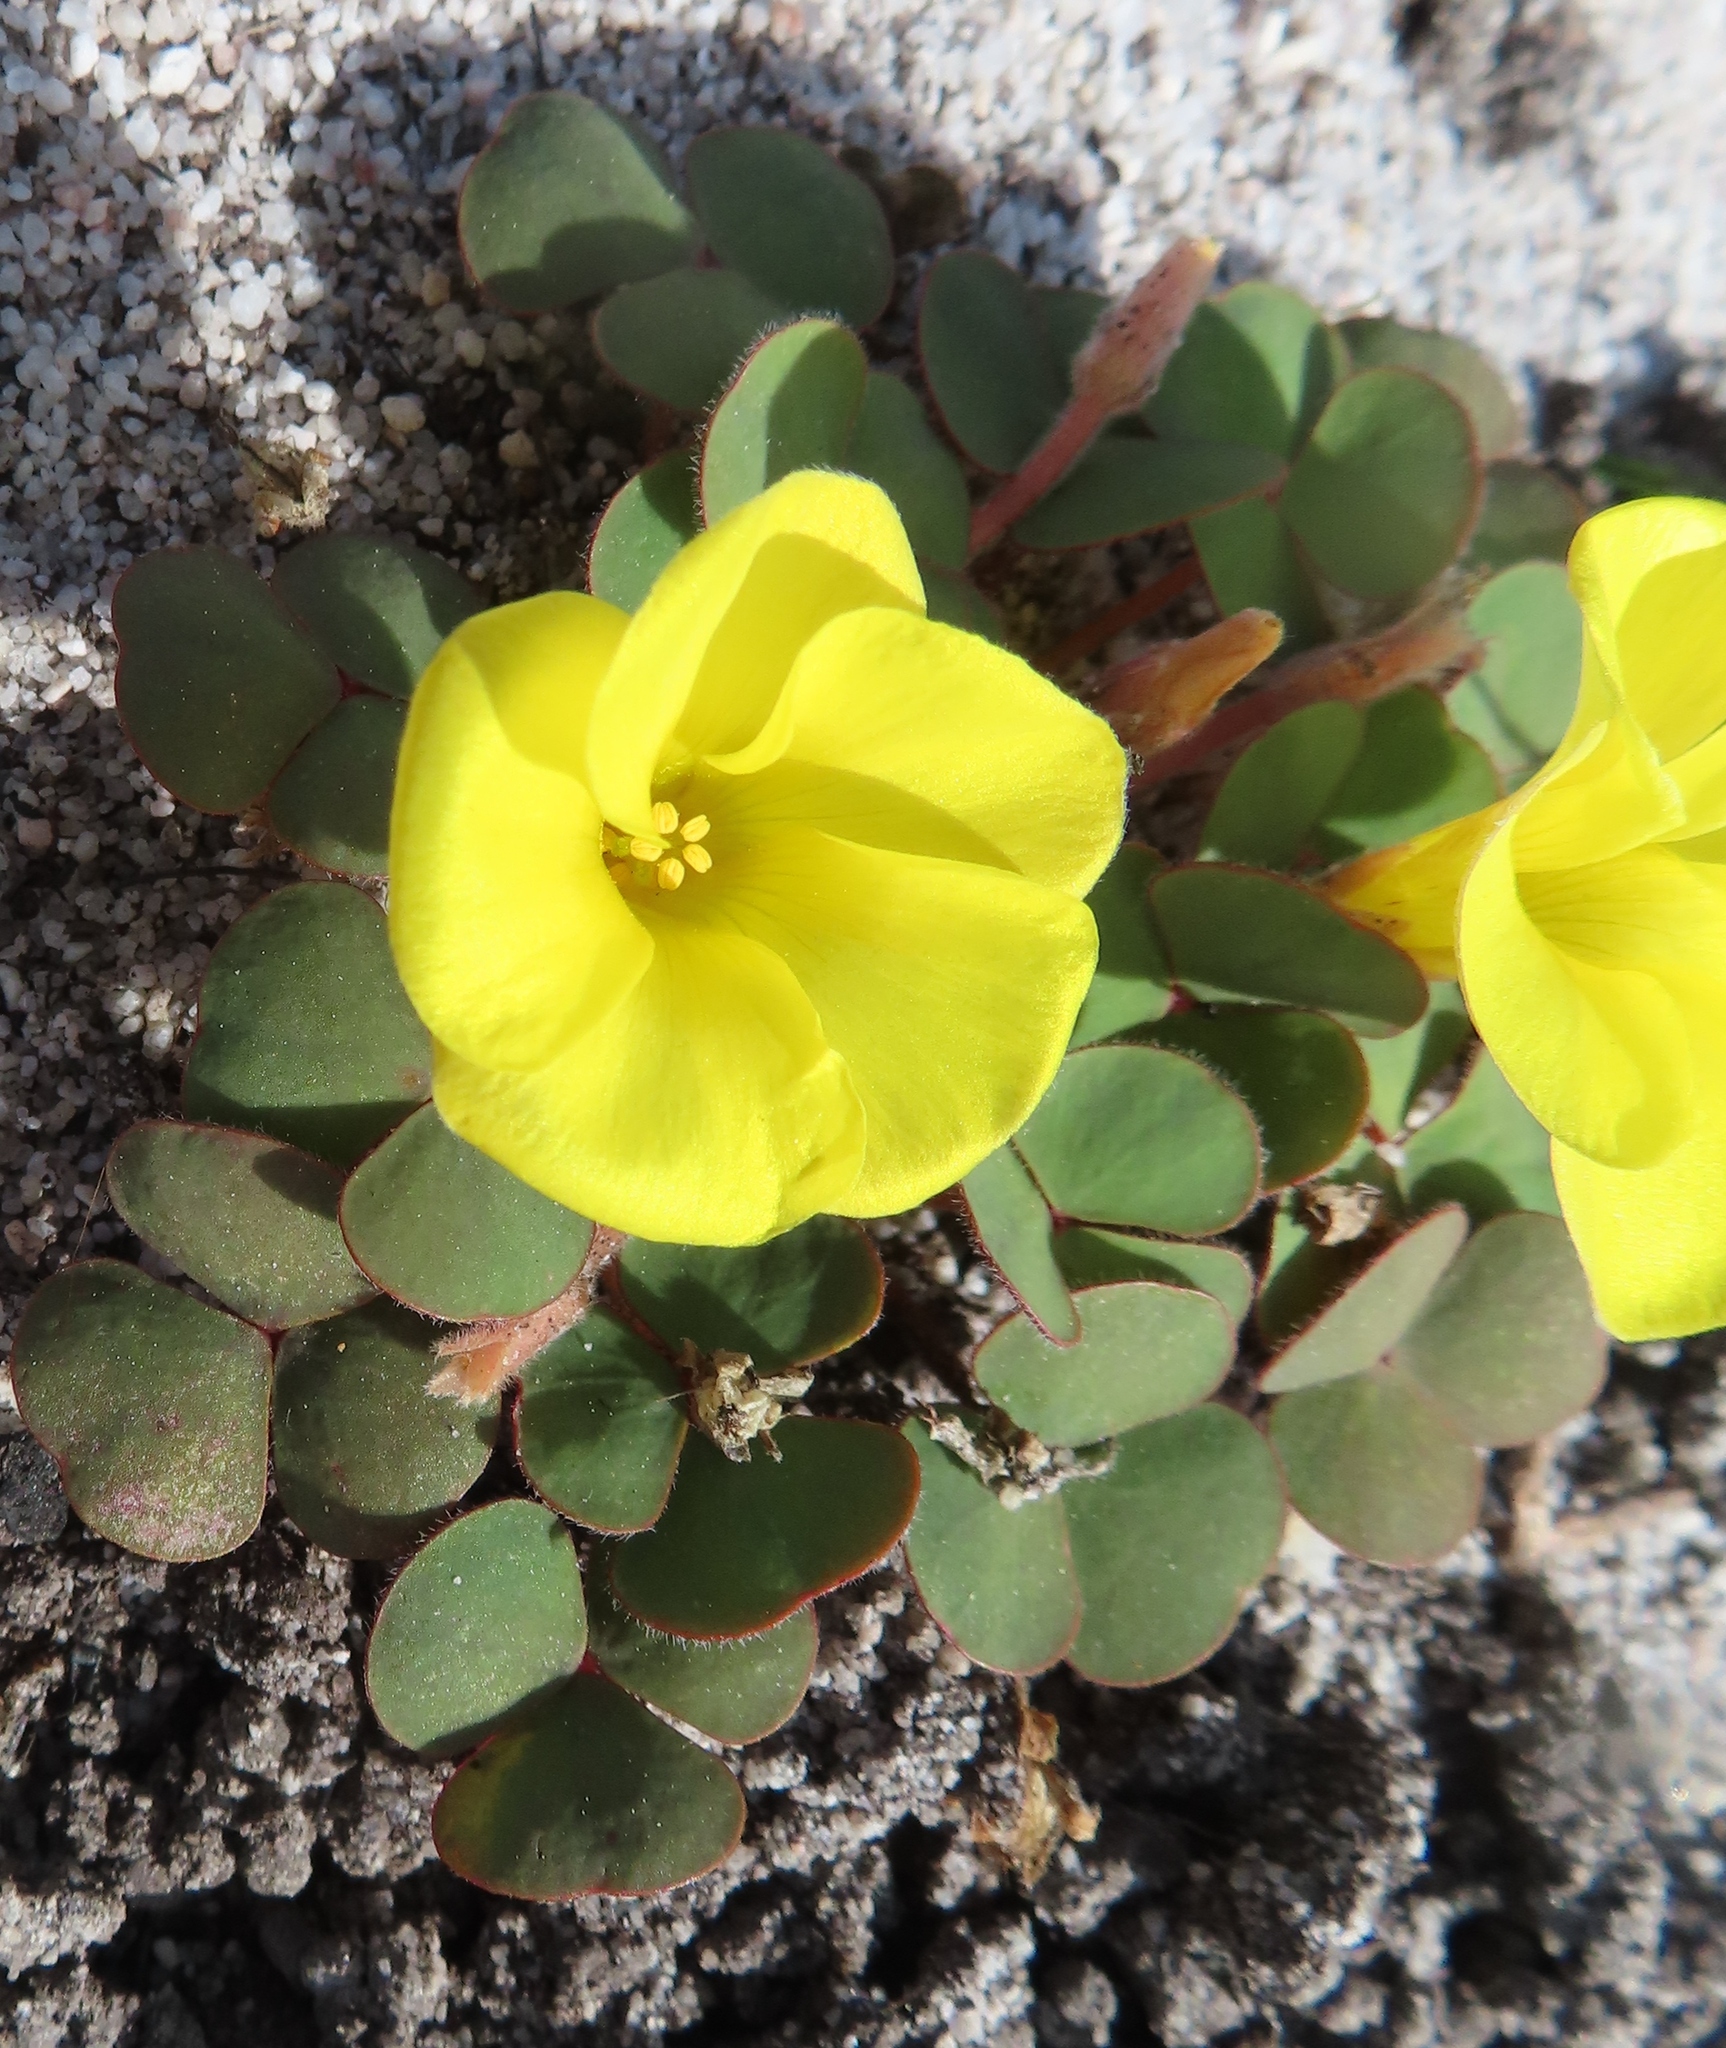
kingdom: Plantae
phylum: Tracheophyta
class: Magnoliopsida
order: Oxalidales
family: Oxalidaceae
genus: Oxalis
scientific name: Oxalis luteola
